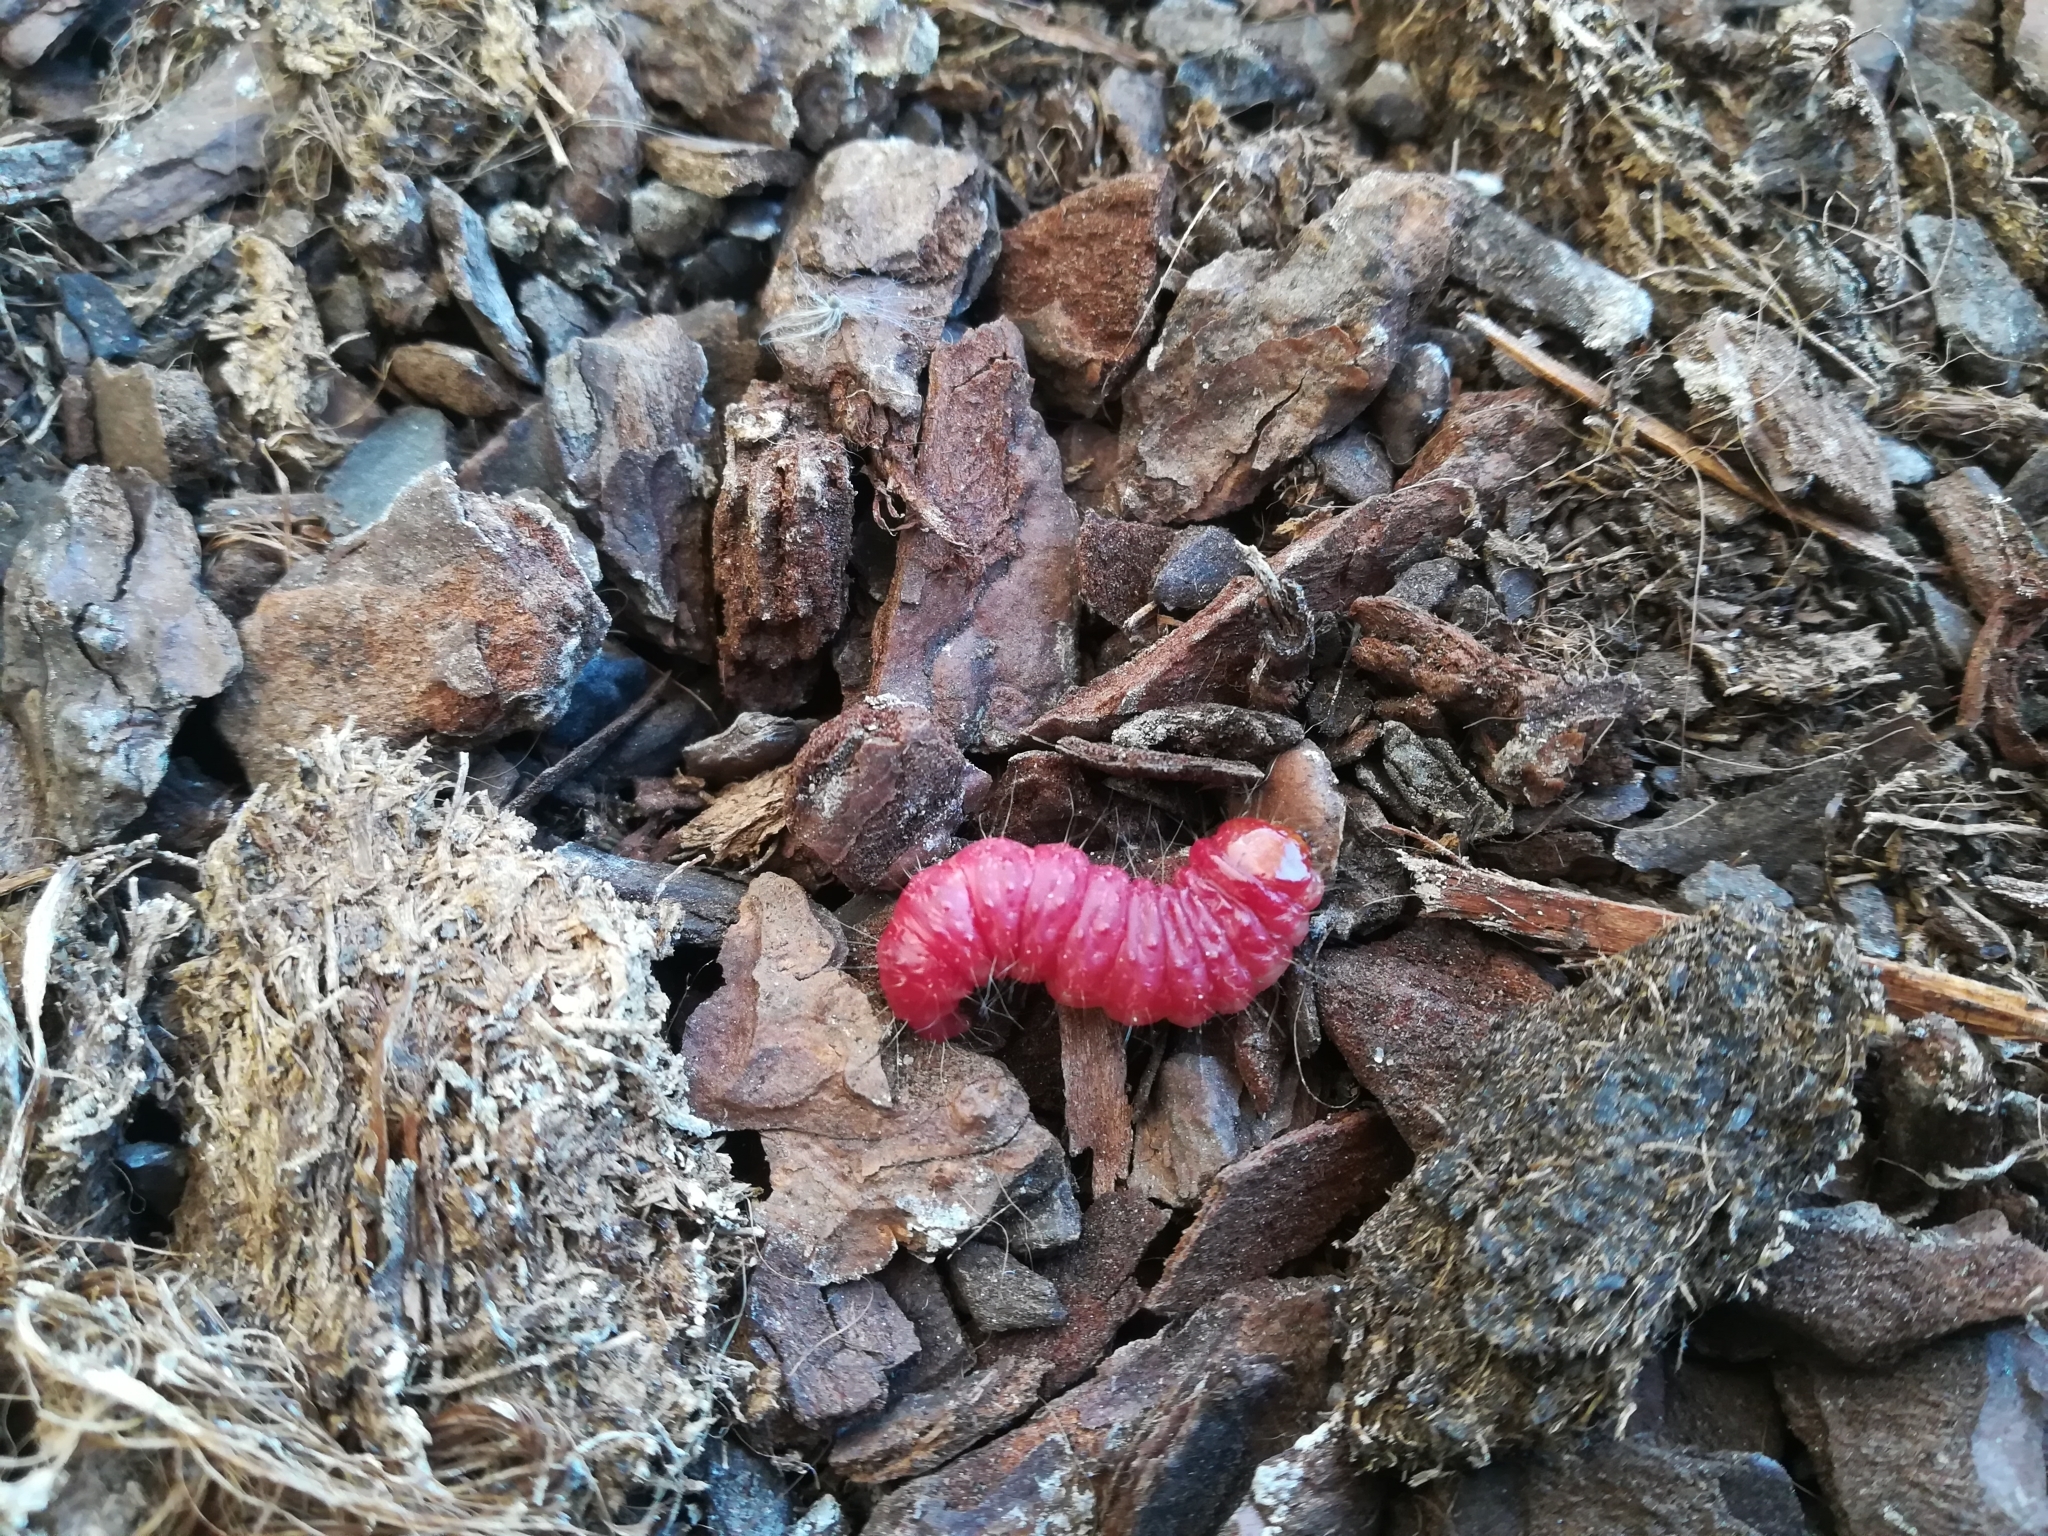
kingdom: Animalia
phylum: Arthropoda
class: Insecta
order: Lepidoptera
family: Cossidae
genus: Dyspessa
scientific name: Dyspessa ulula
